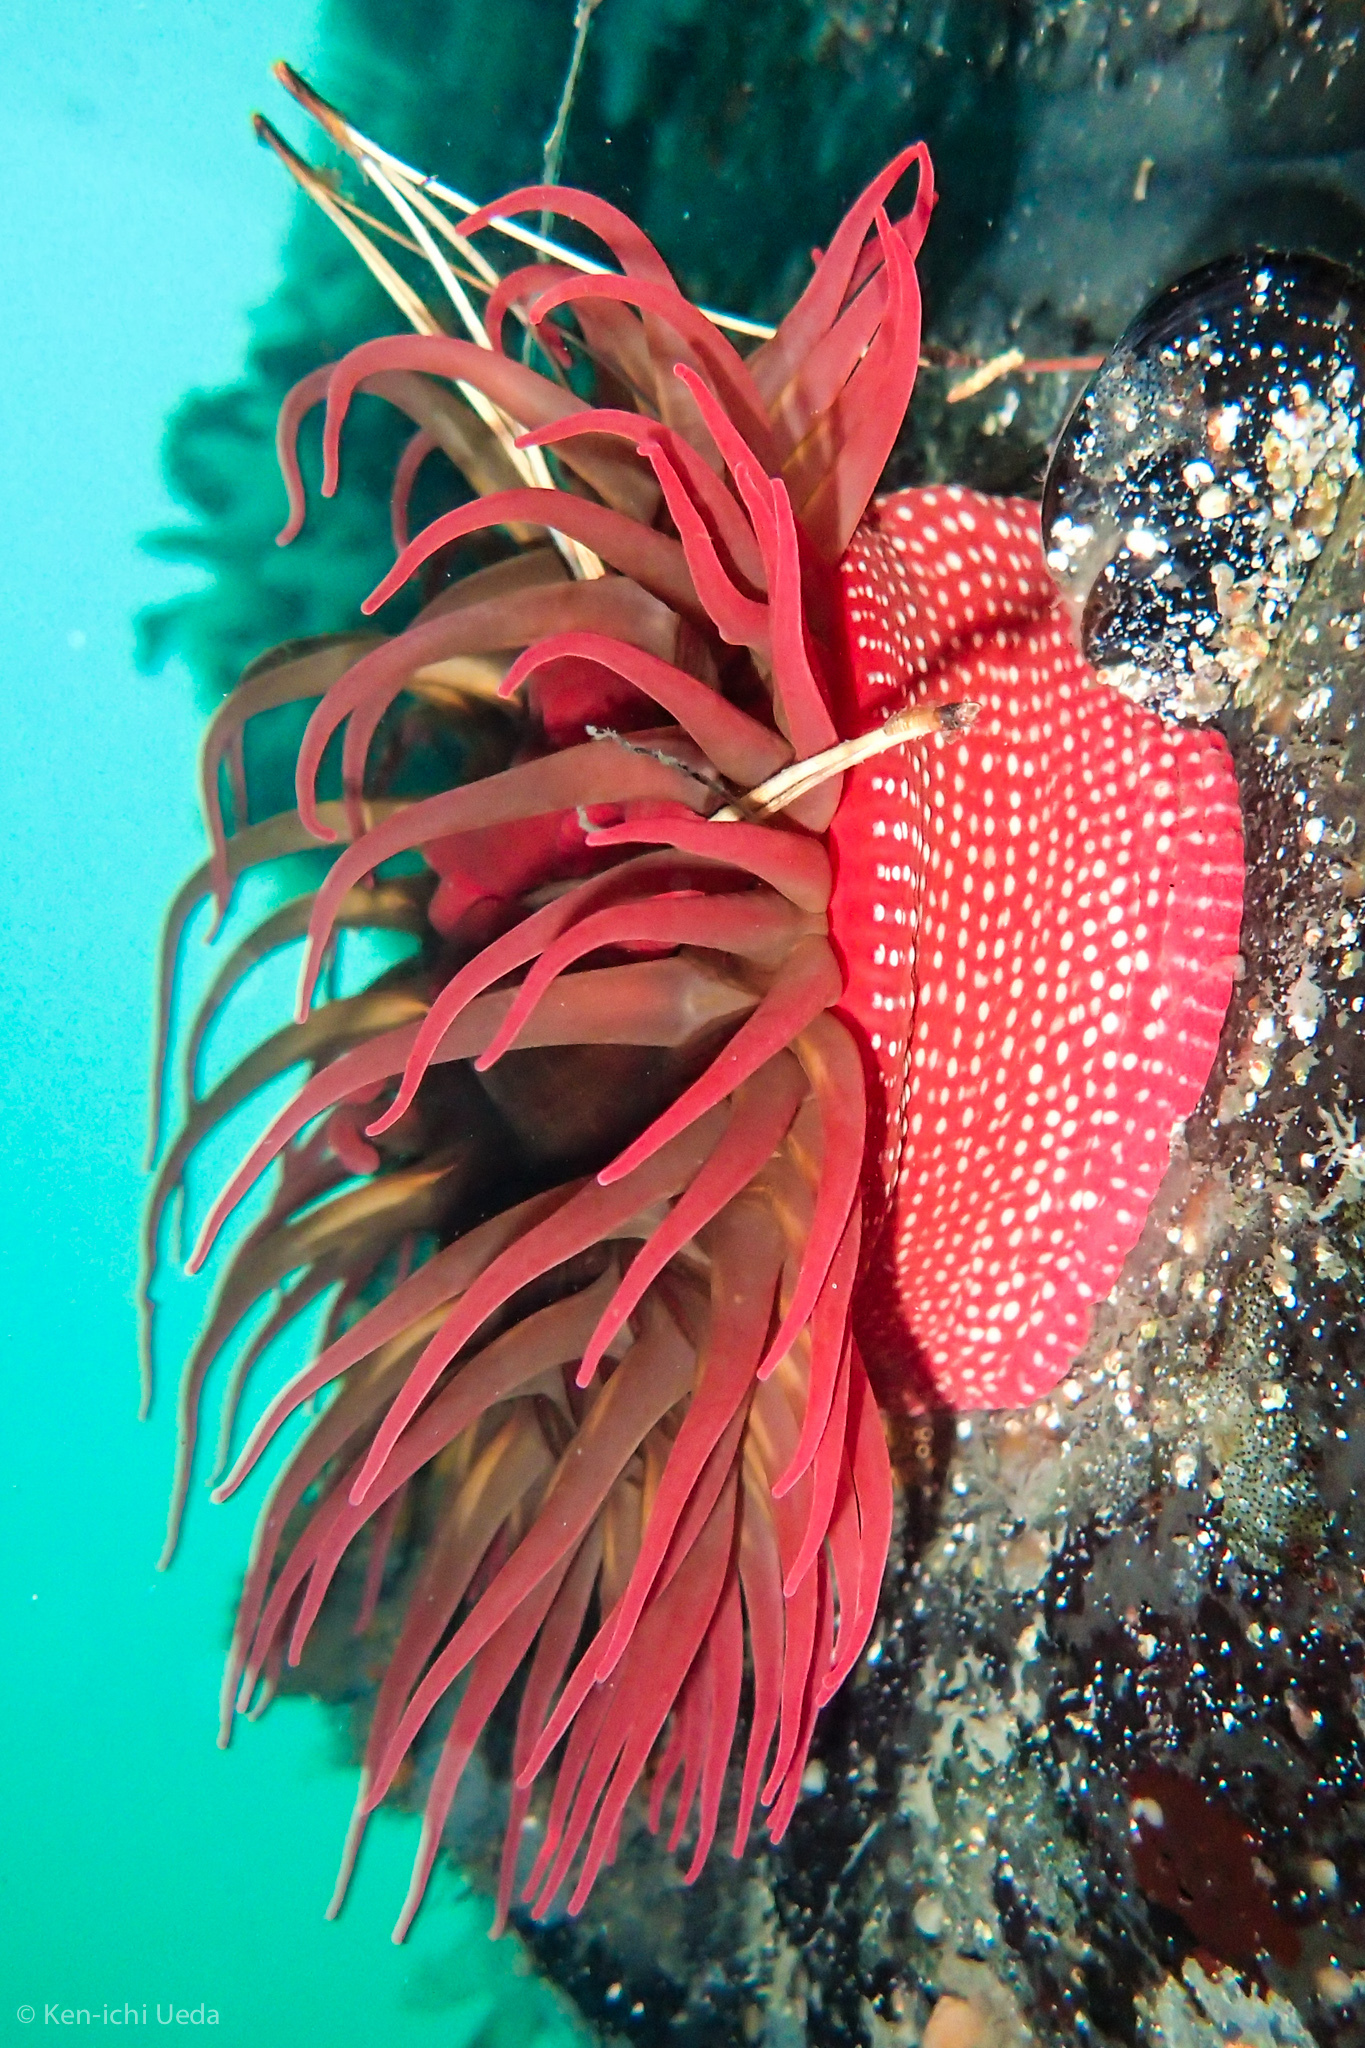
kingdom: Animalia
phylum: Cnidaria
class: Anthozoa
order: Actiniaria
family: Actiniidae
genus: Cribrinopsis
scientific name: Cribrinopsis albopunctata
